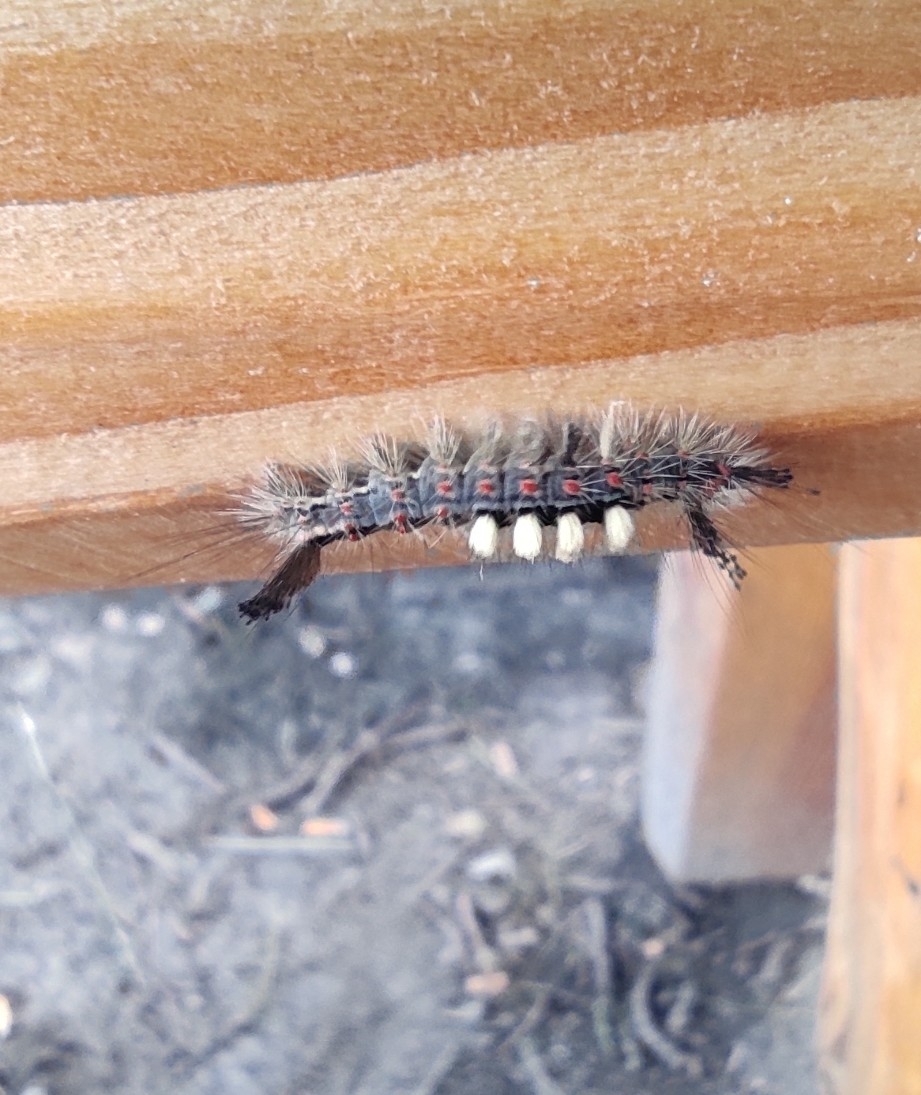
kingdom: Animalia
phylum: Arthropoda
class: Insecta
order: Lepidoptera
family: Erebidae
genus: Orgyia
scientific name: Orgyia antiqua
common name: Vapourer
